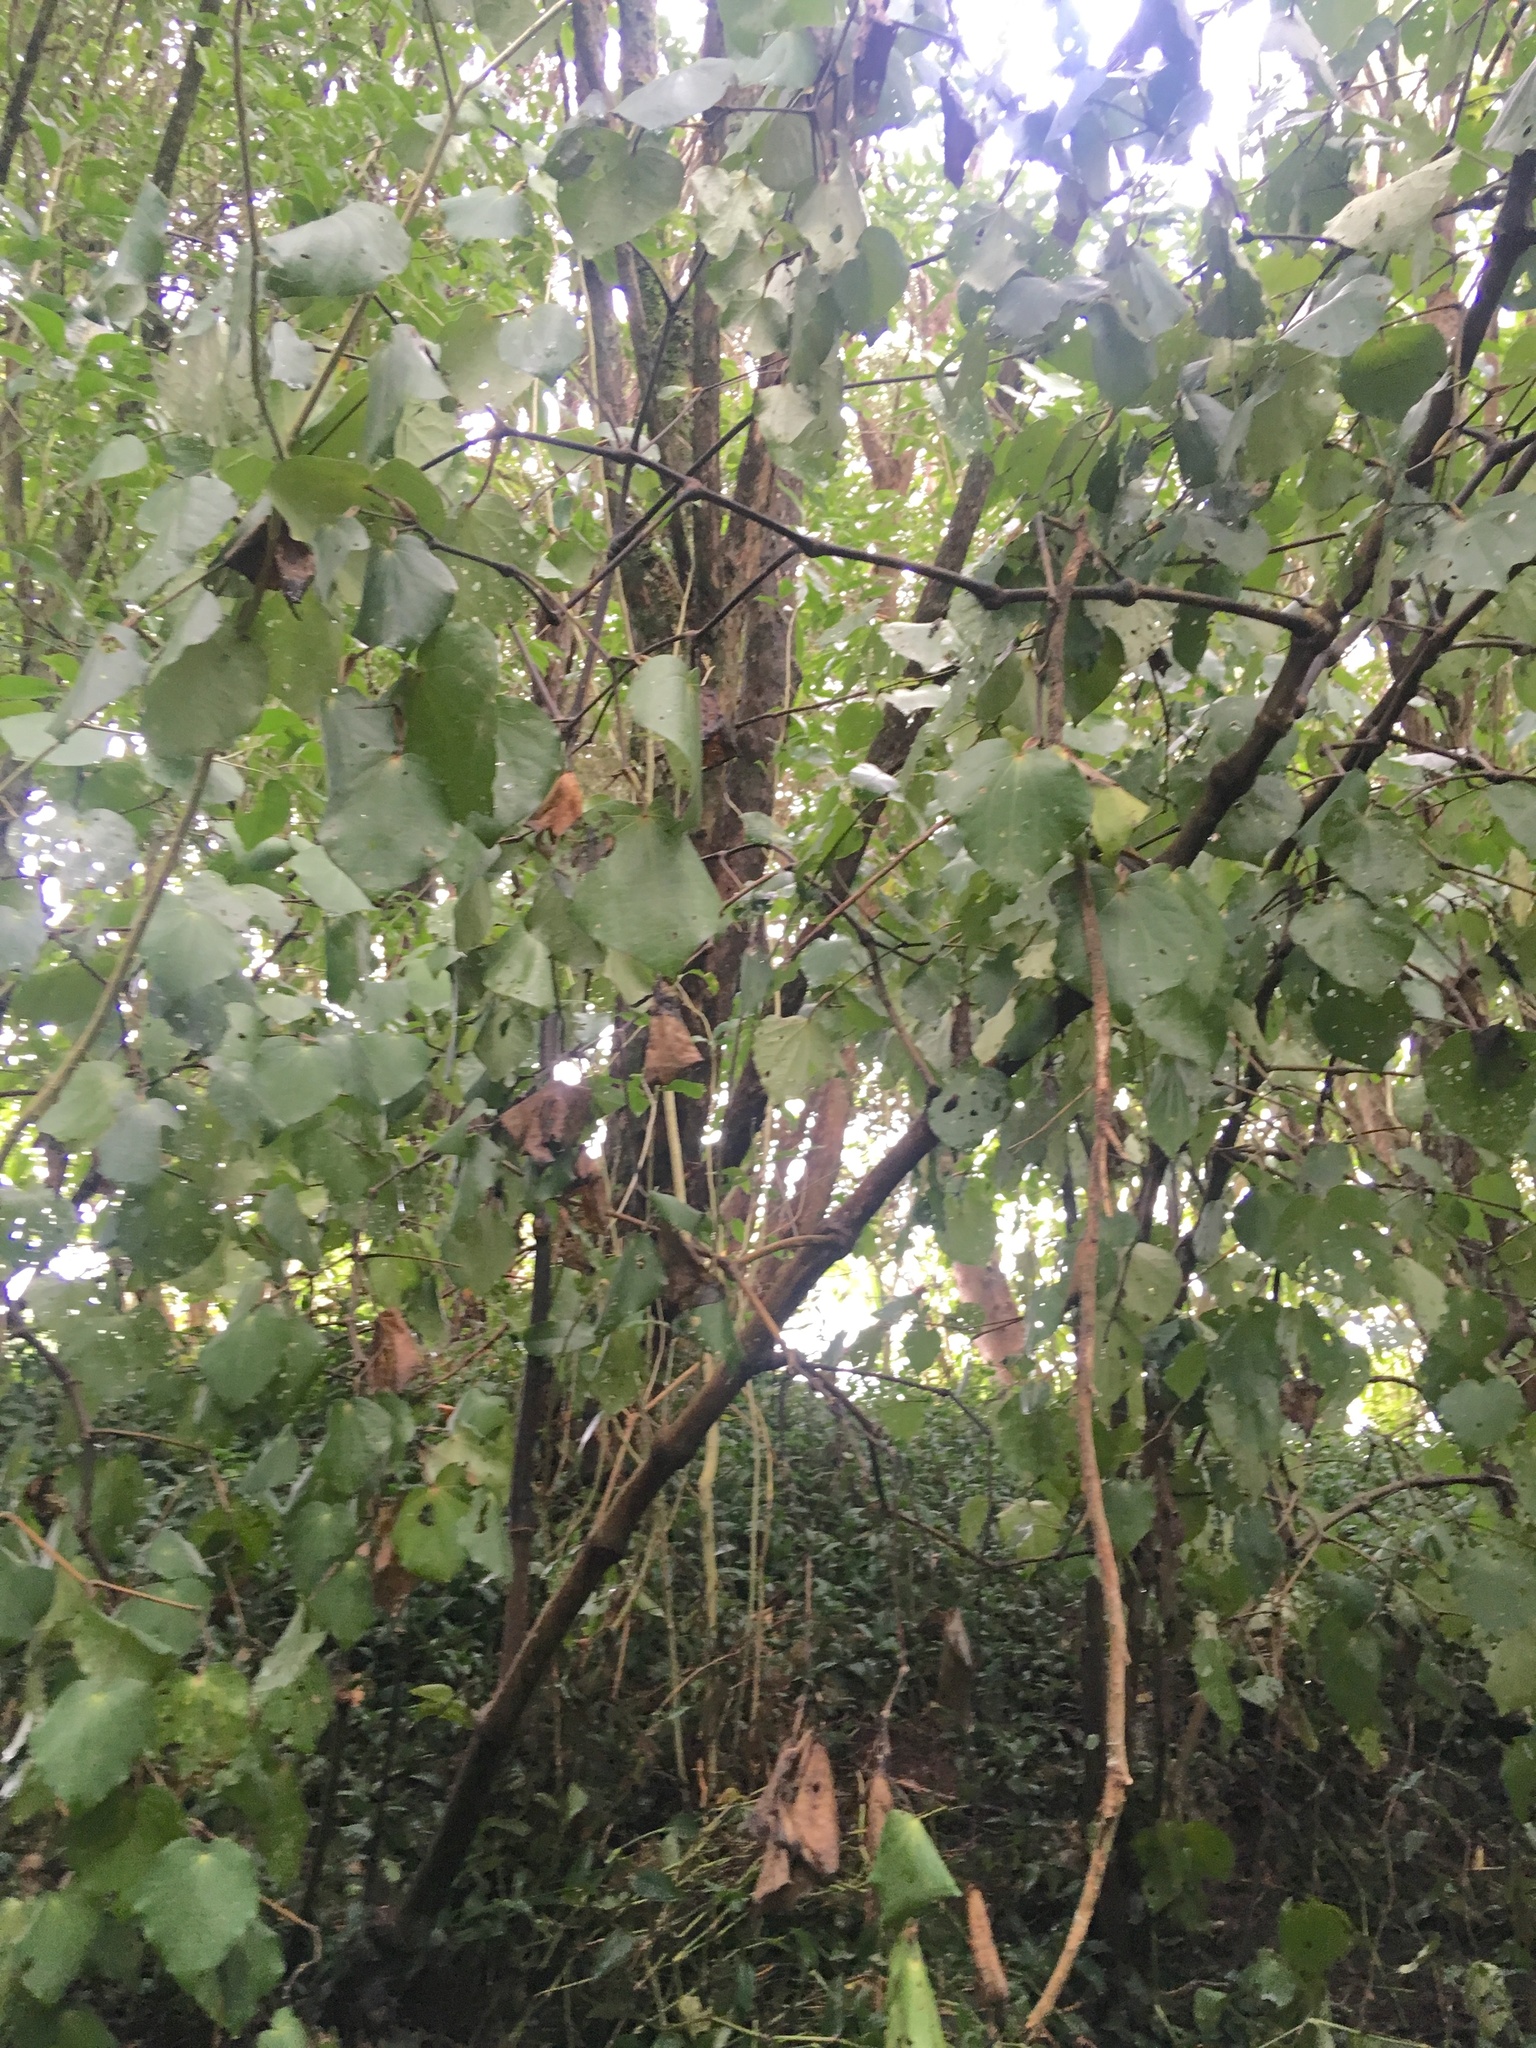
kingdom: Plantae
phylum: Tracheophyta
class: Magnoliopsida
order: Piperales
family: Piperaceae
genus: Macropiper
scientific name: Macropiper excelsum
